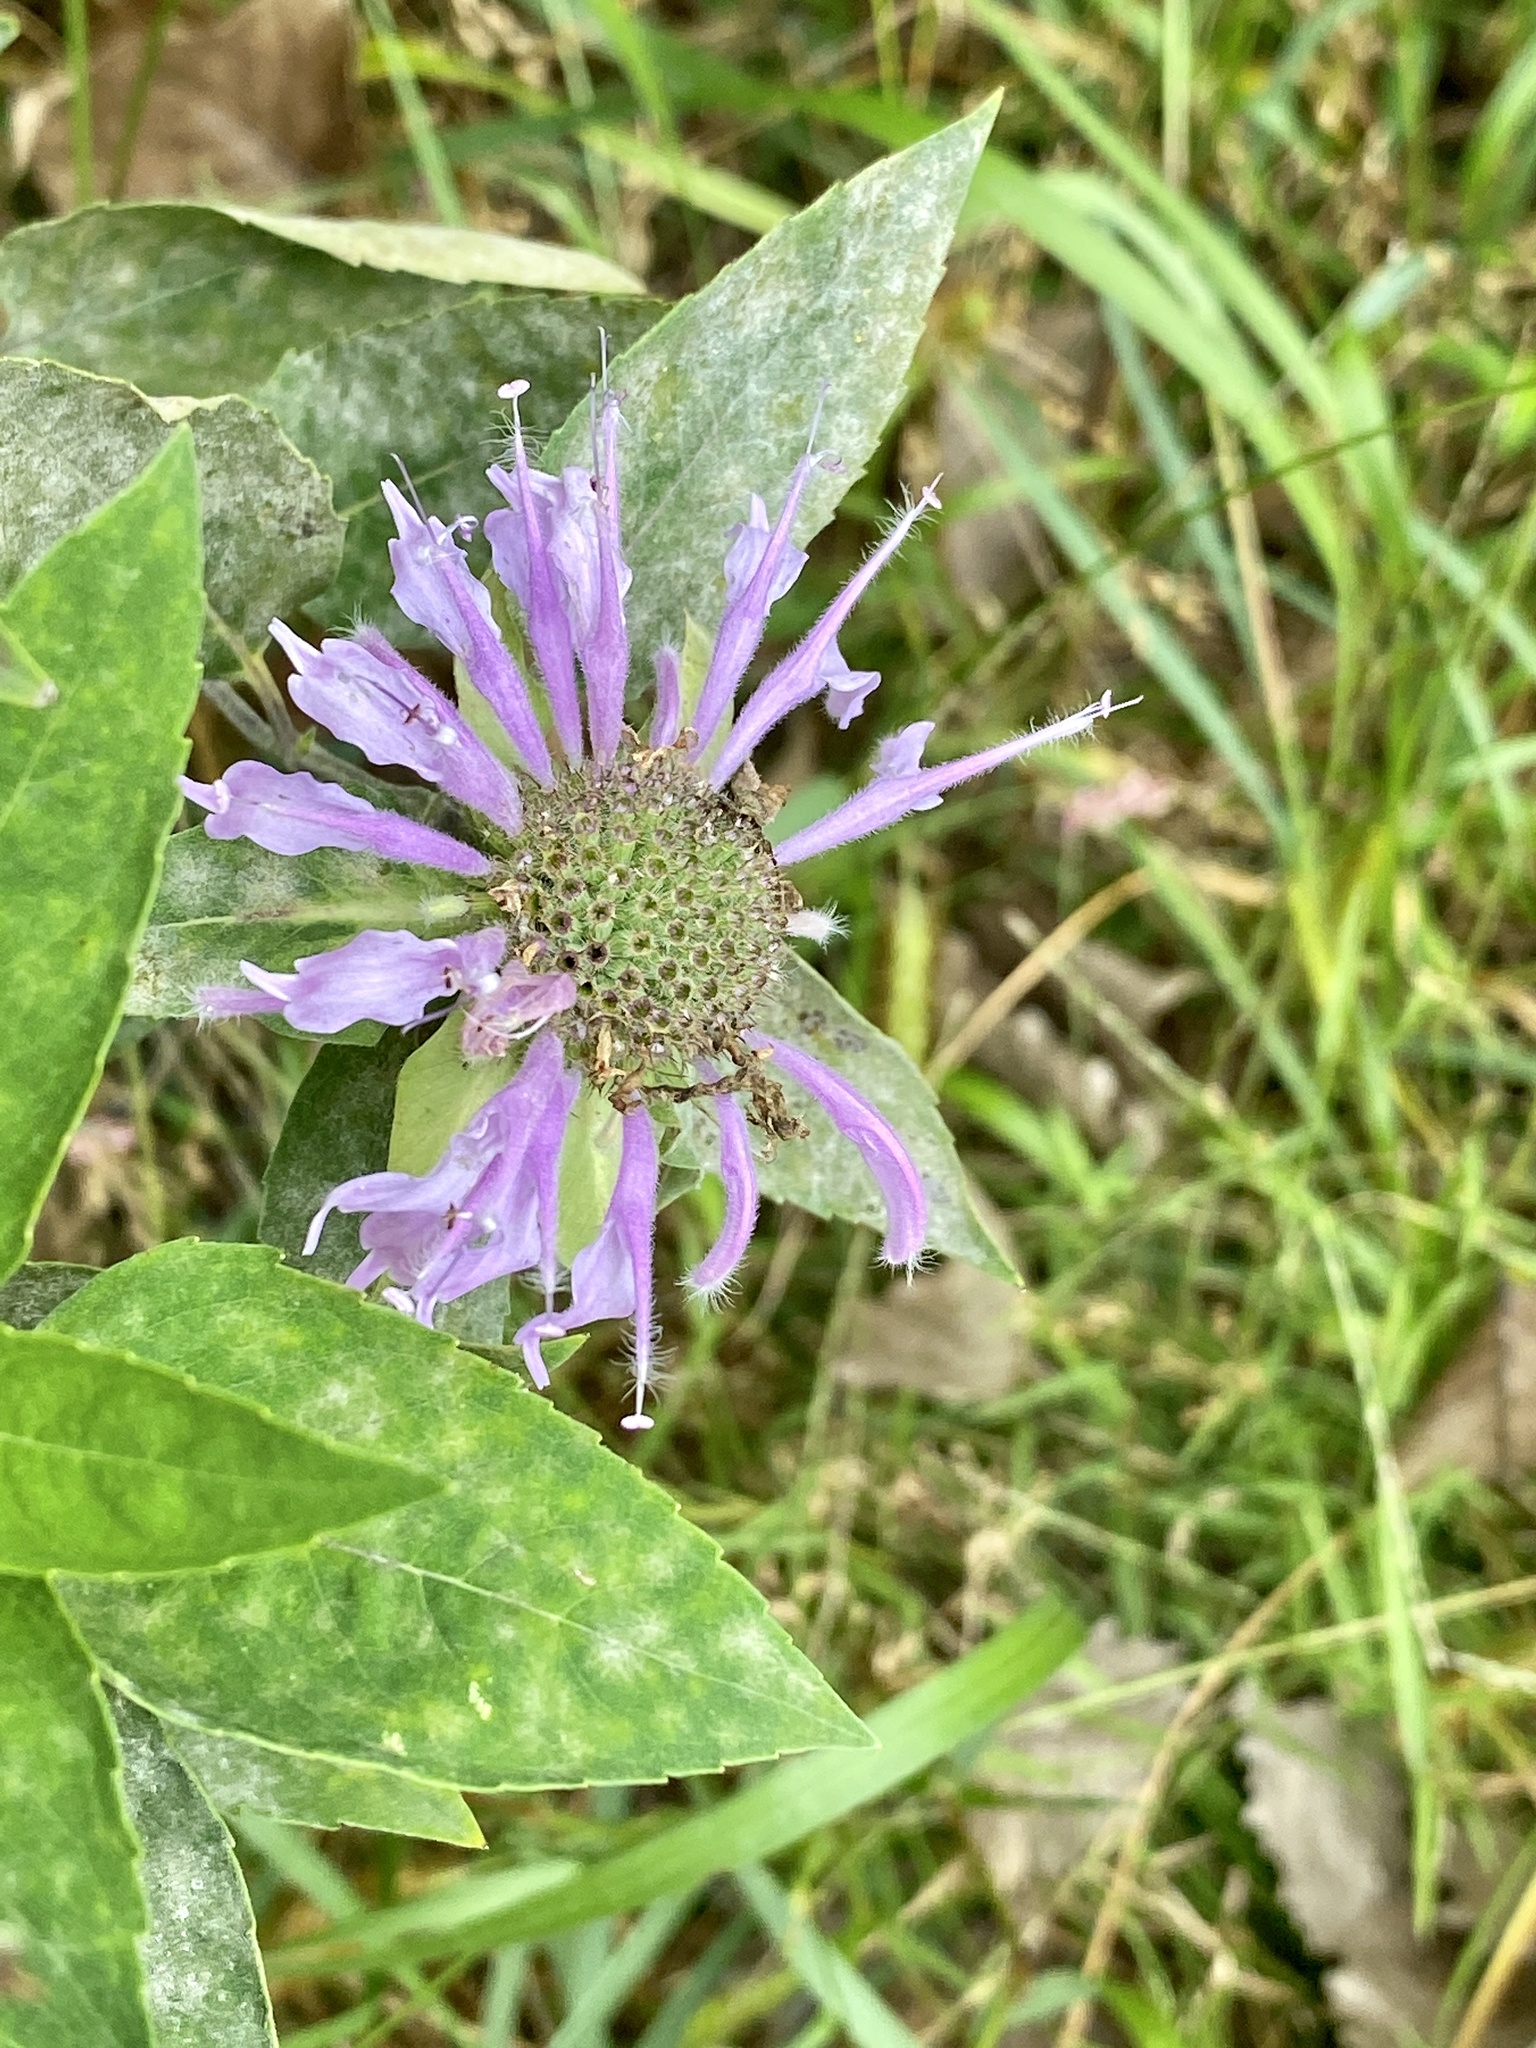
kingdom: Plantae
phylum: Tracheophyta
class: Magnoliopsida
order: Lamiales
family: Lamiaceae
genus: Monarda
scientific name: Monarda fistulosa
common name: Purple beebalm
